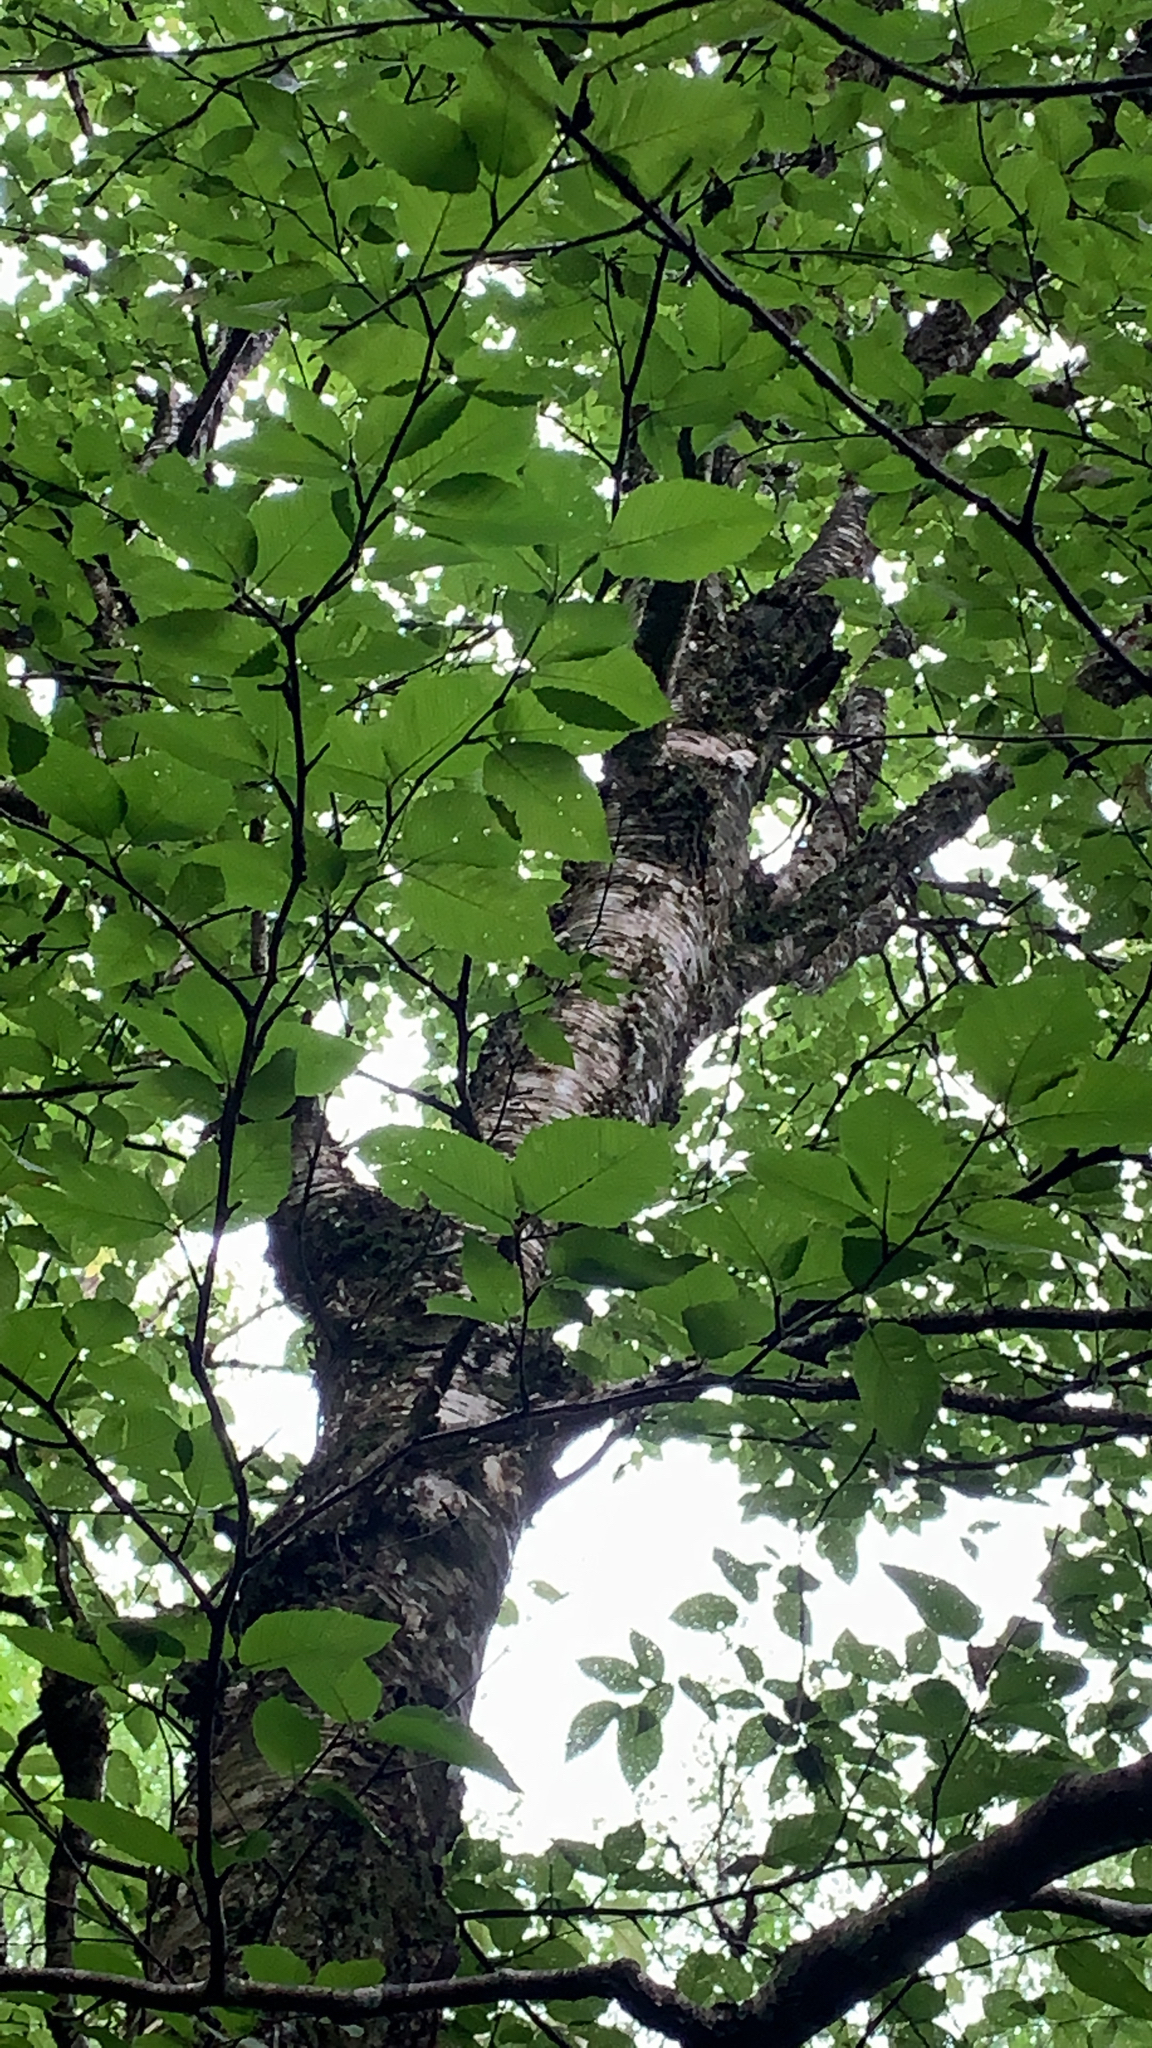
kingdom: Plantae
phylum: Tracheophyta
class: Magnoliopsida
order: Fagales
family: Betulaceae
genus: Betula
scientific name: Betula alleghaniensis
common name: Yellow birch
